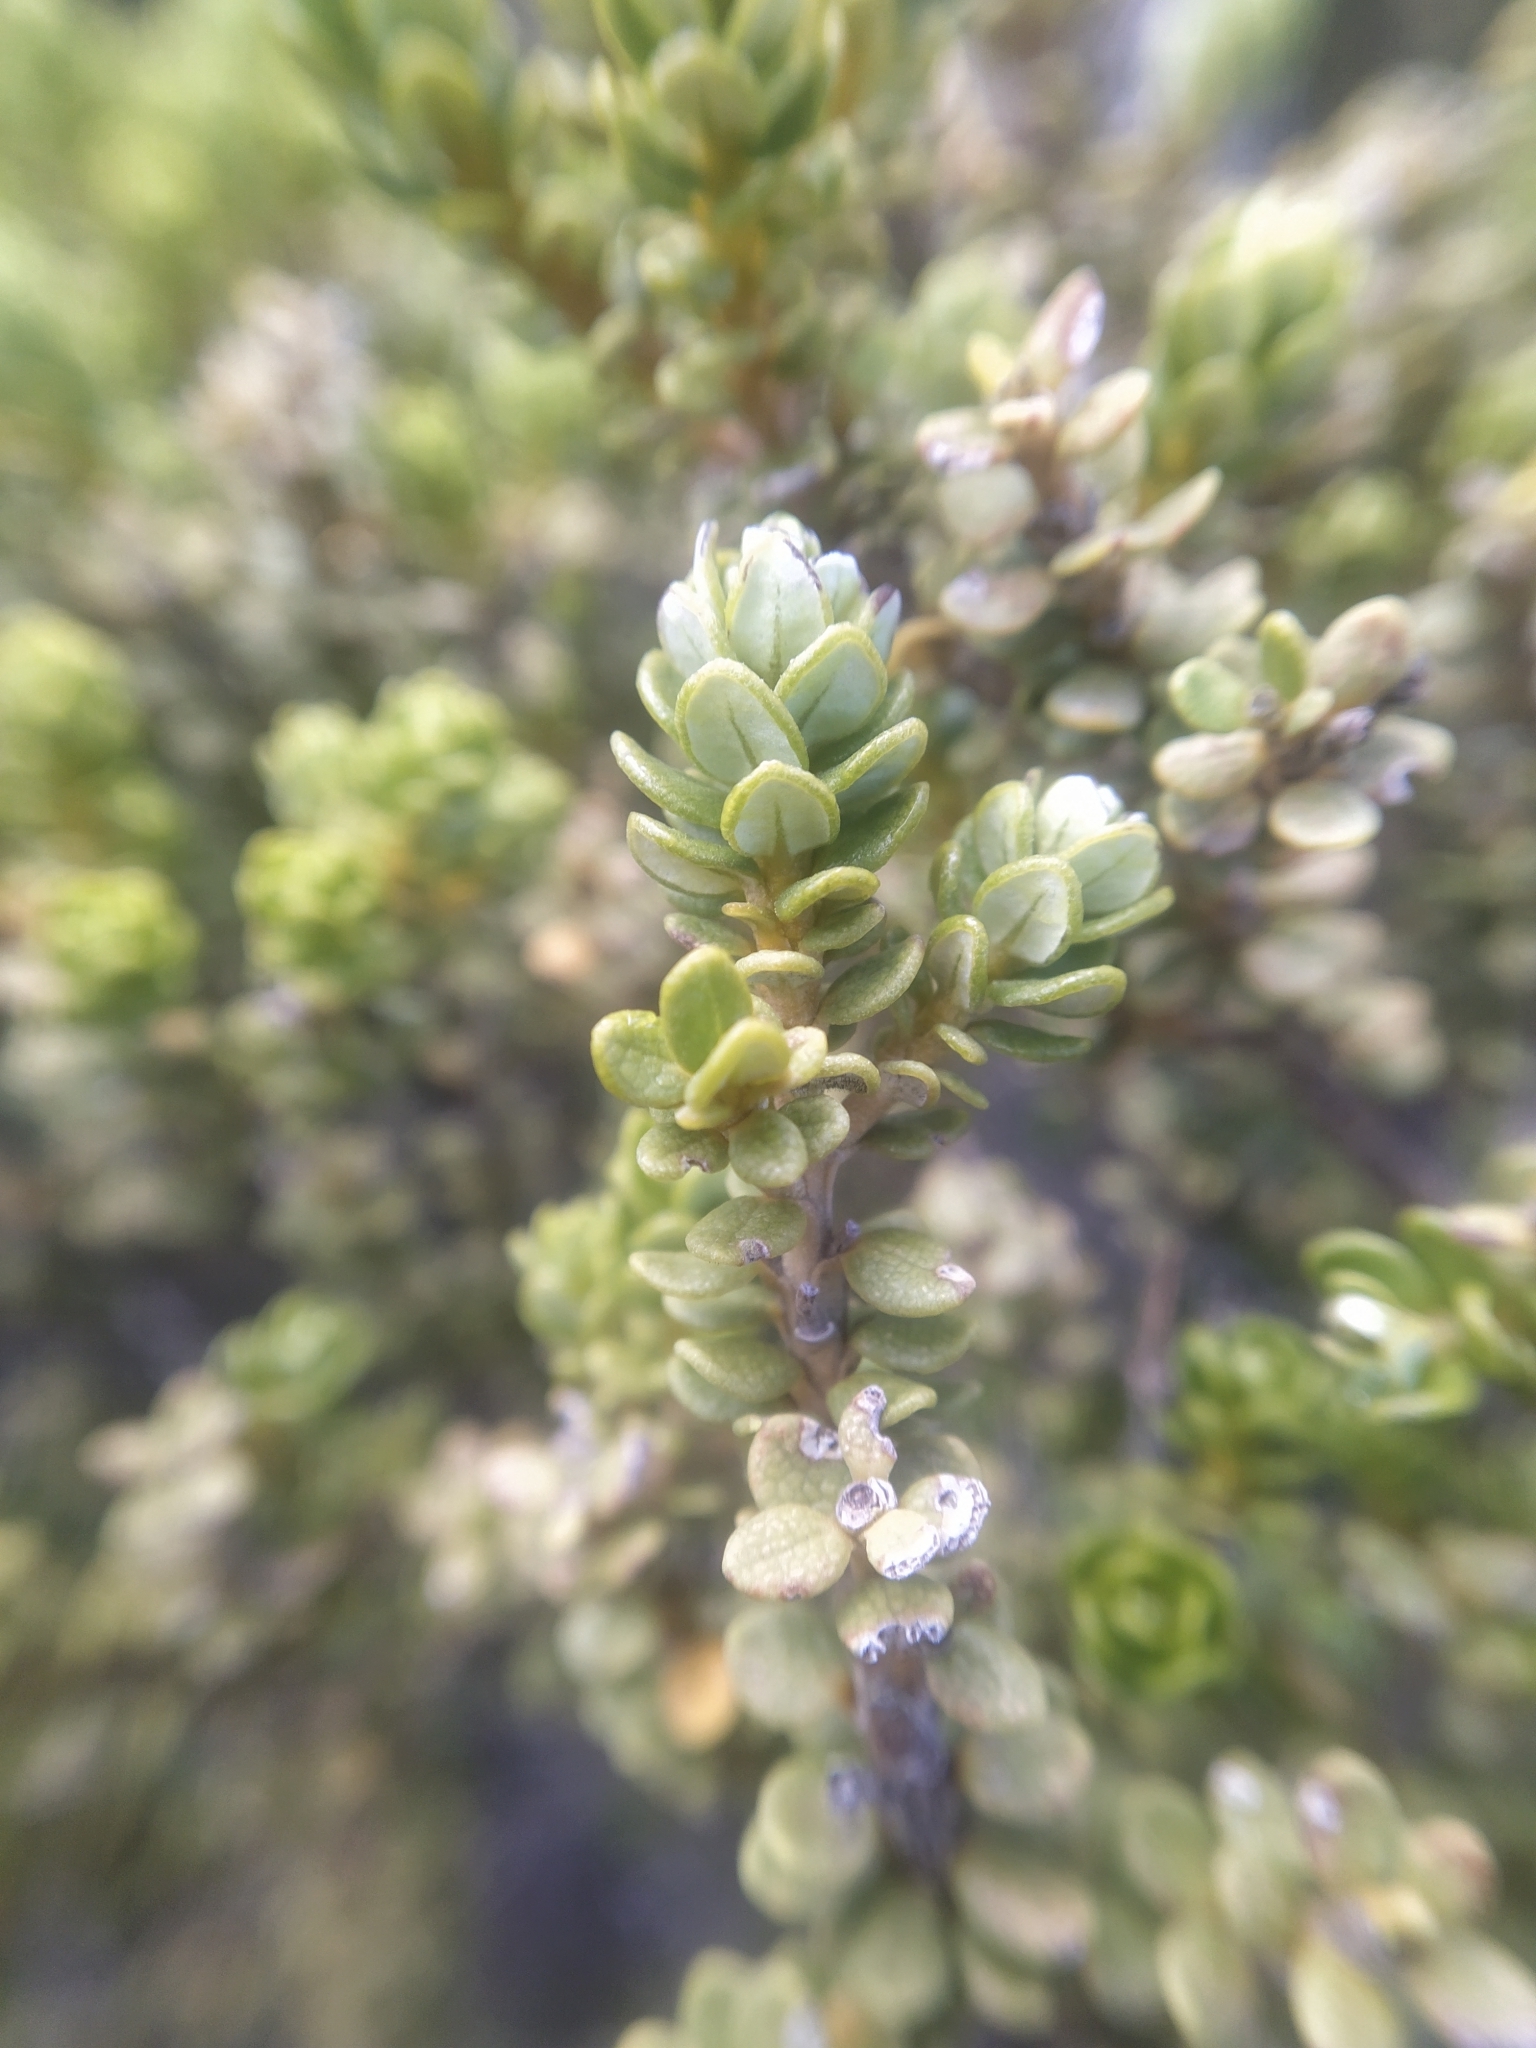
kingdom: Plantae
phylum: Tracheophyta
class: Magnoliopsida
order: Asterales
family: Asteraceae
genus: Olearia
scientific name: Olearia nummularifolia
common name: Sticky daisybush
